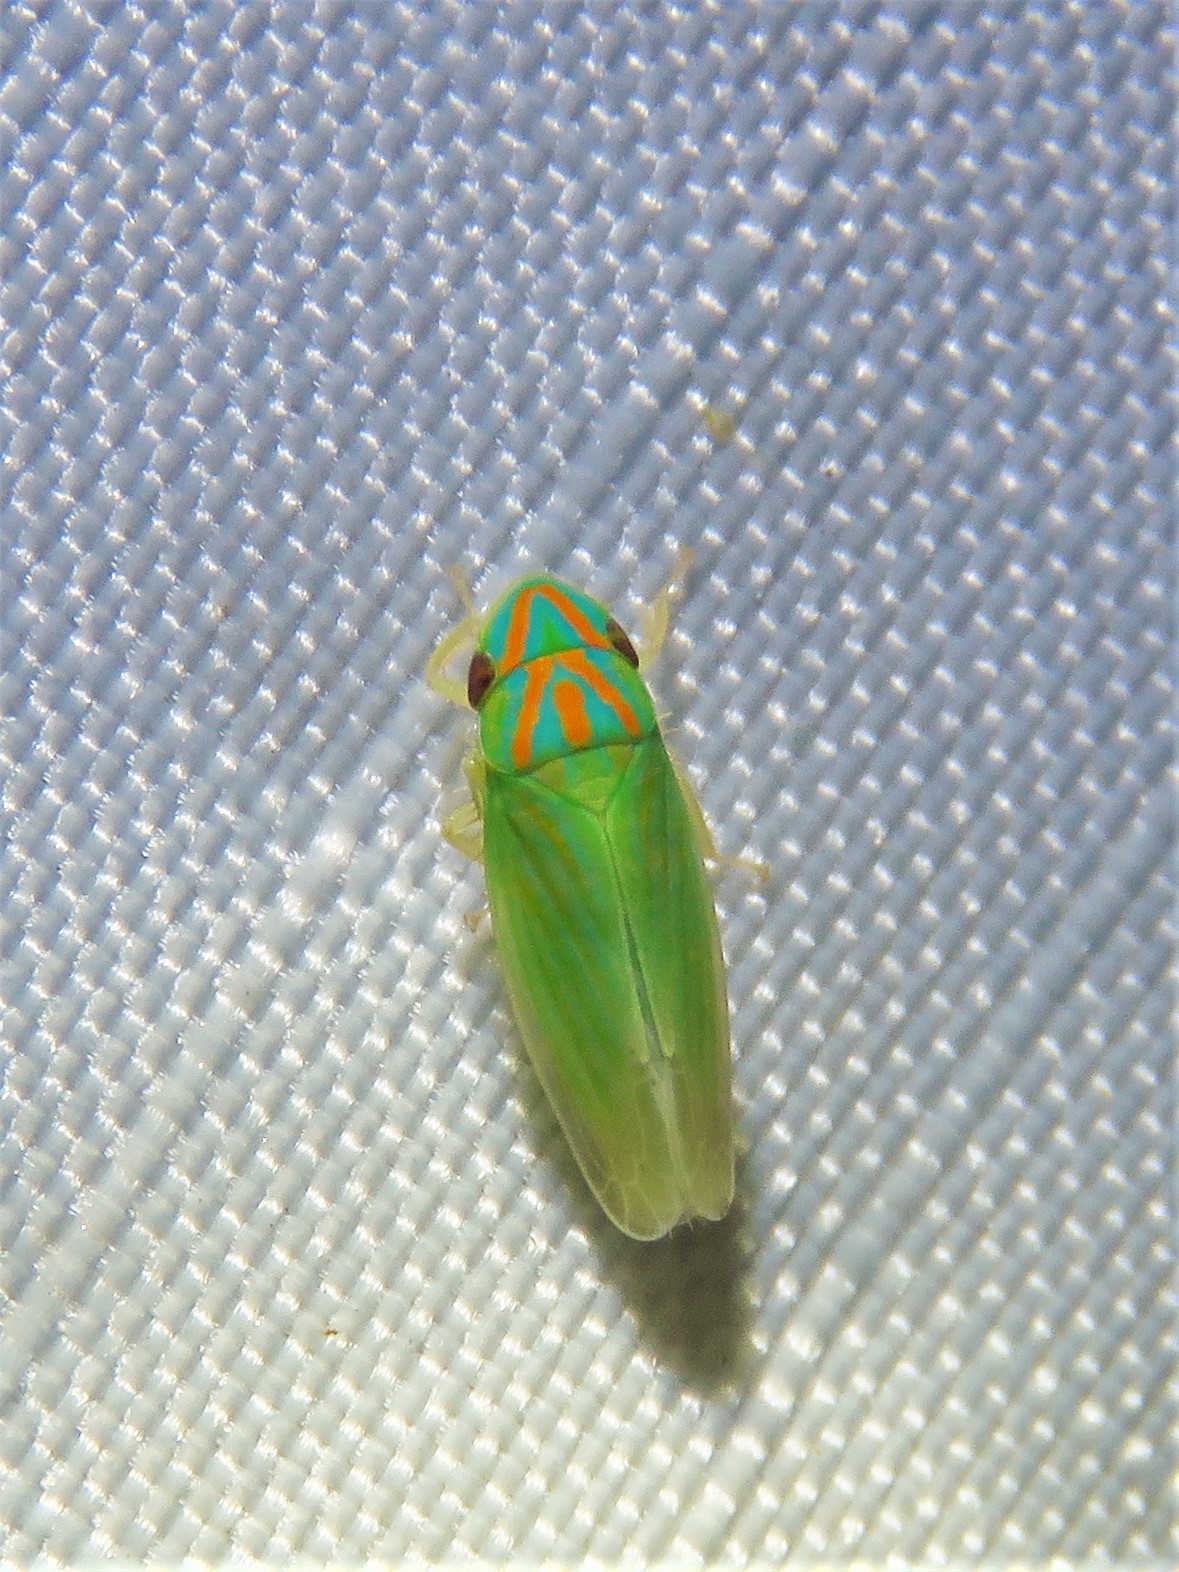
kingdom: Animalia
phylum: Arthropoda
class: Insecta
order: Hemiptera
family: Cicadellidae
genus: Spangbergiella
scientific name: Spangbergiella vulnerata
